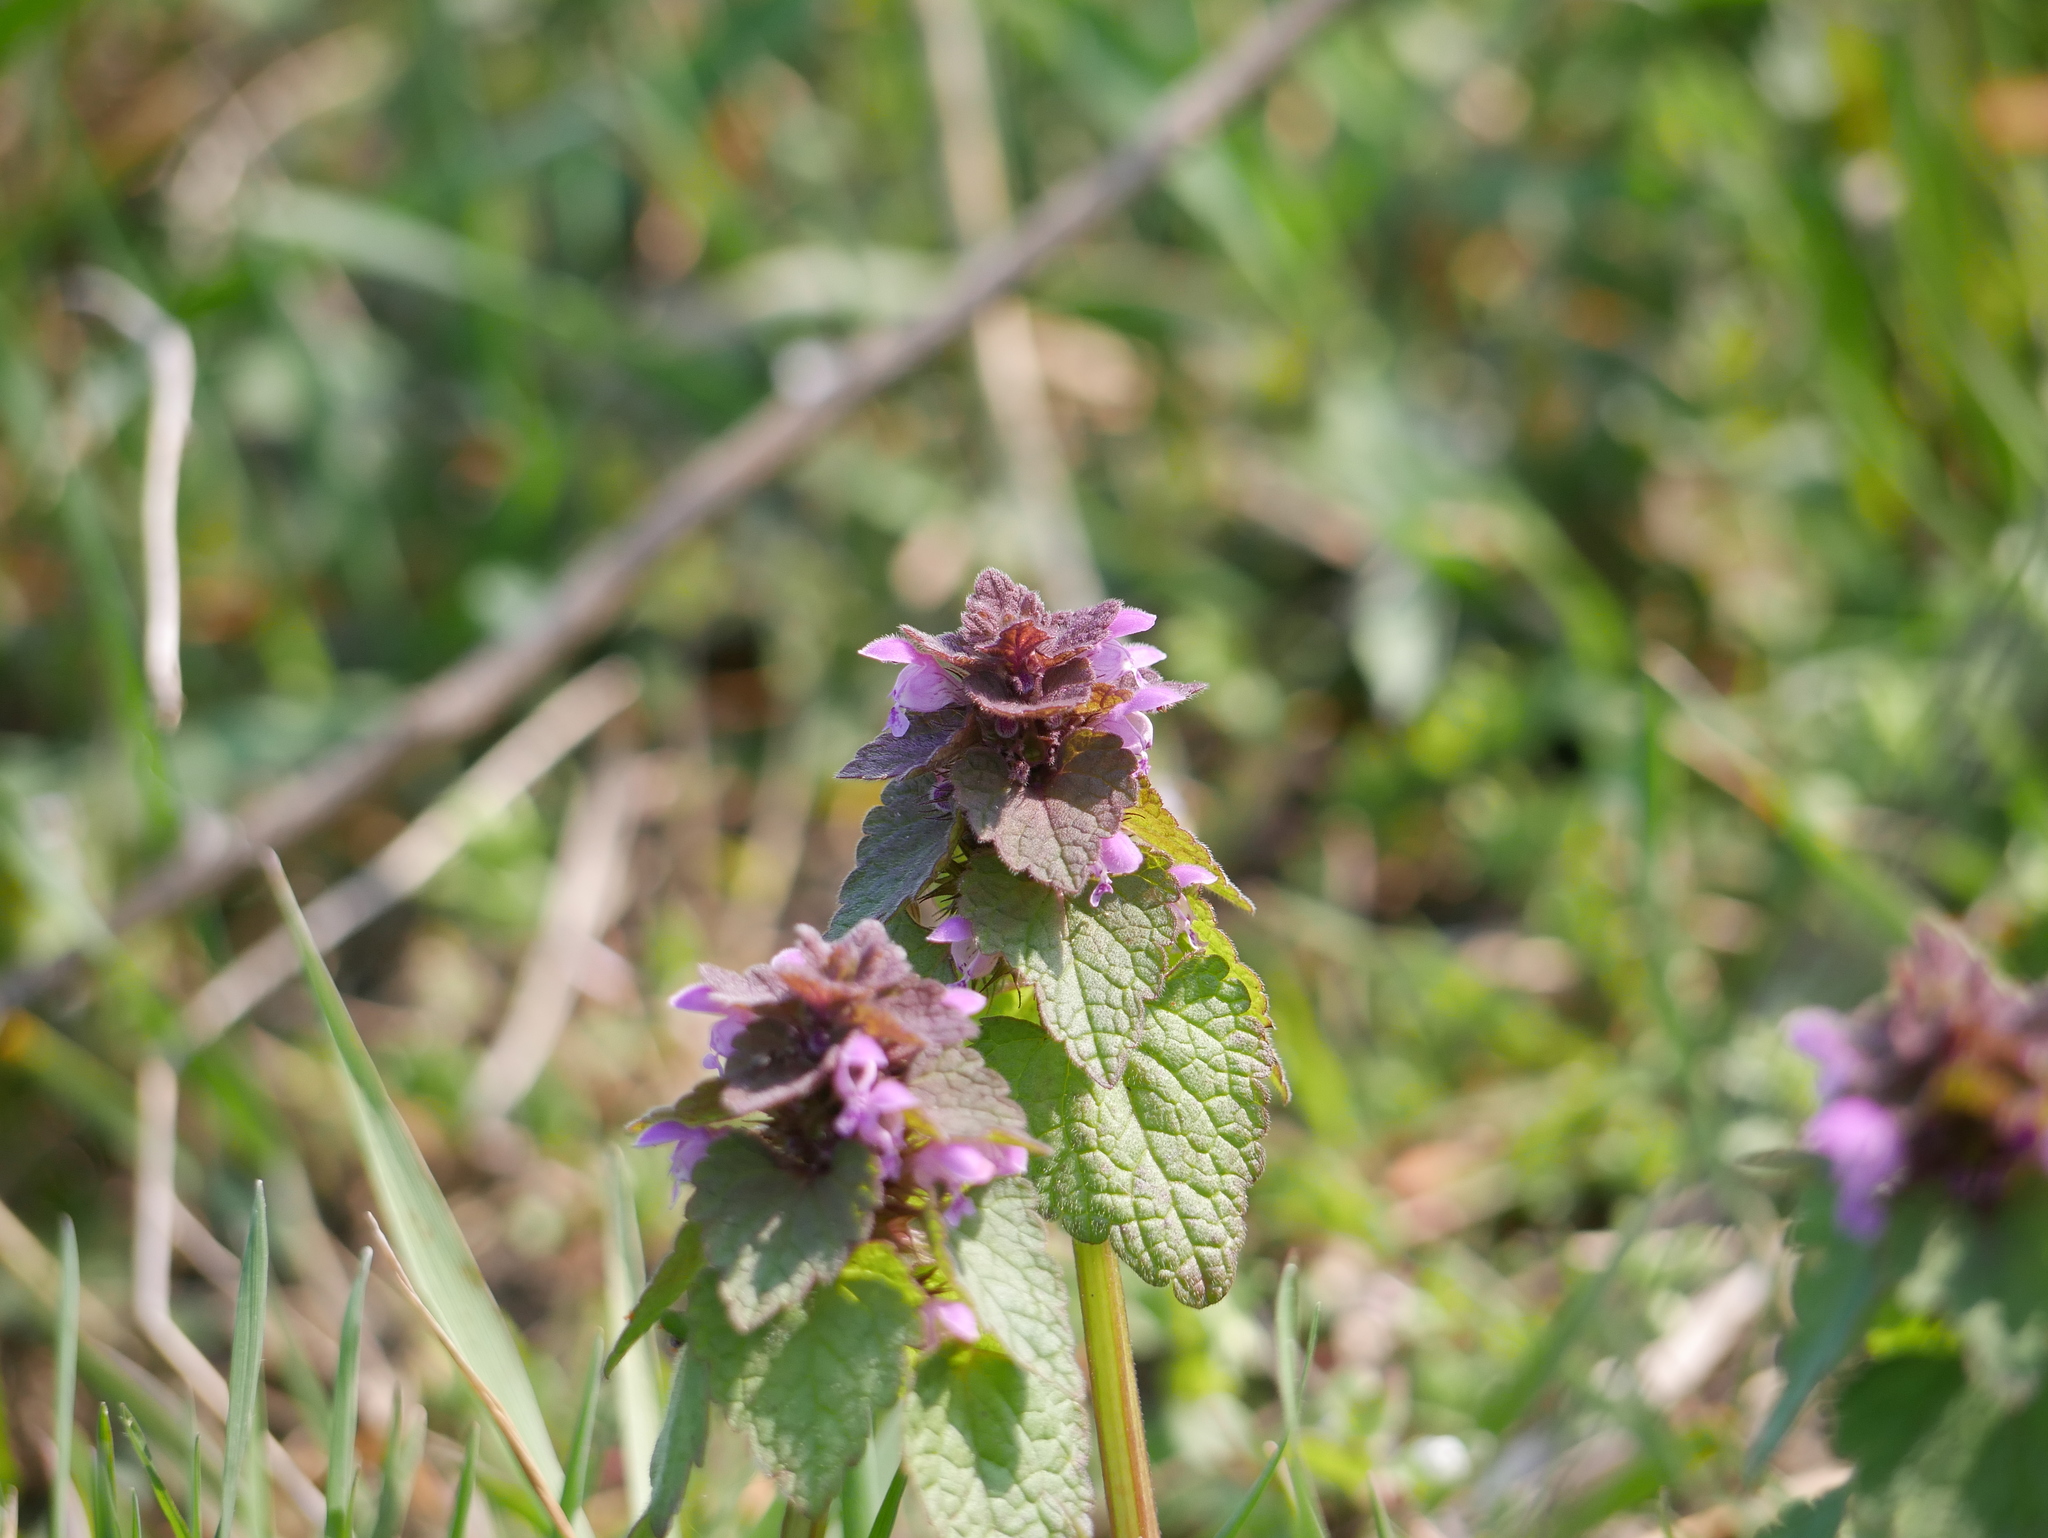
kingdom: Plantae
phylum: Tracheophyta
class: Magnoliopsida
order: Lamiales
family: Lamiaceae
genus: Lamium
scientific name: Lamium purpureum
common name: Red dead-nettle
